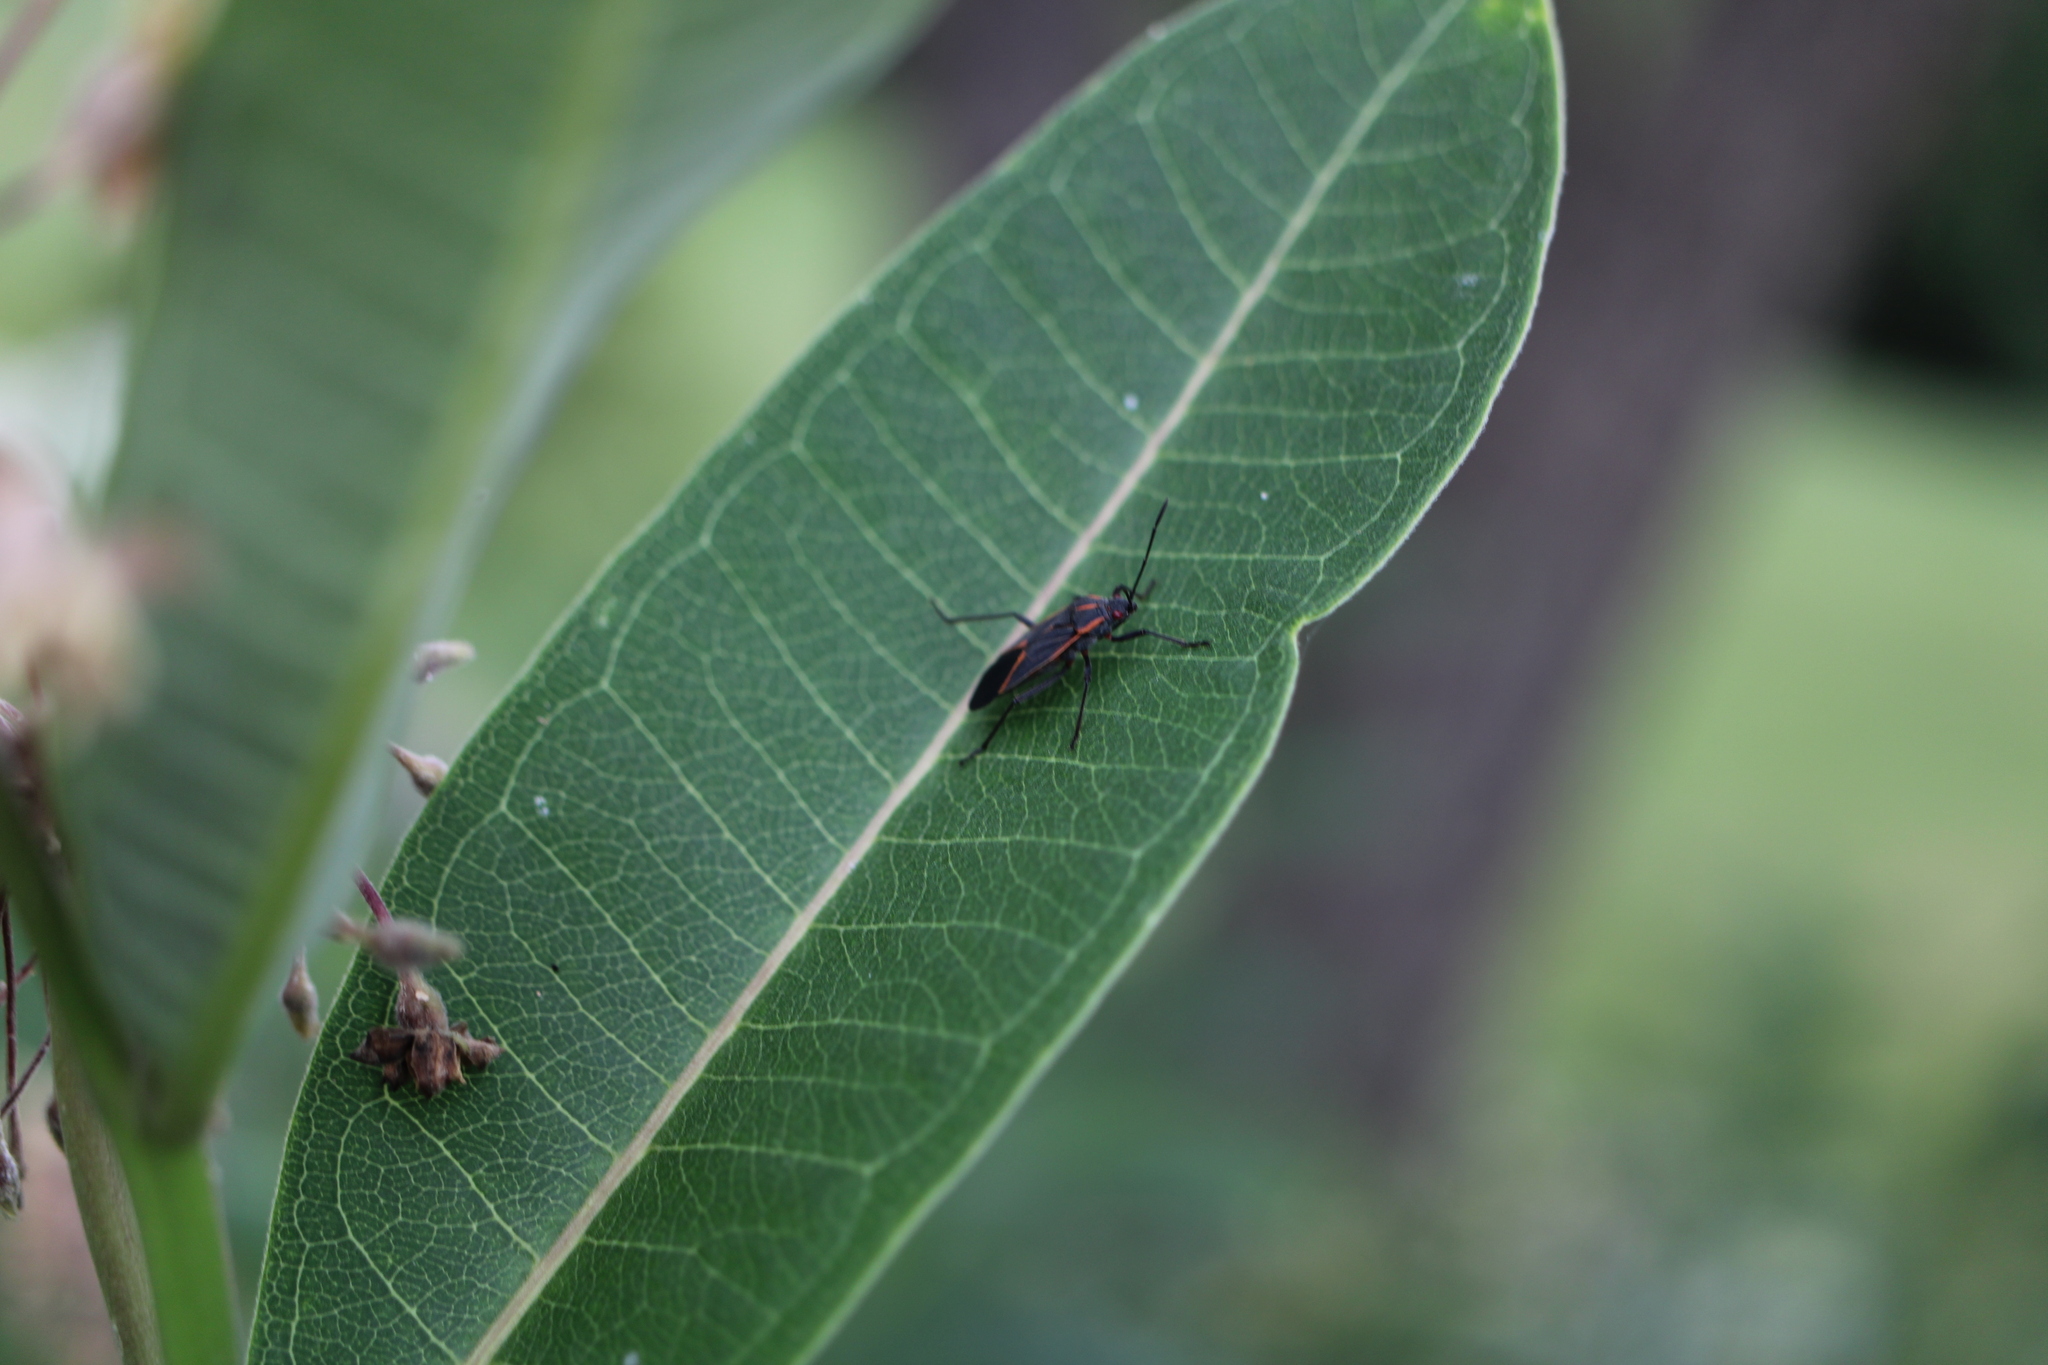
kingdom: Animalia
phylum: Arthropoda
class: Insecta
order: Hemiptera
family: Rhopalidae
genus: Boisea
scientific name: Boisea trivittata
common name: Boxelder bug
